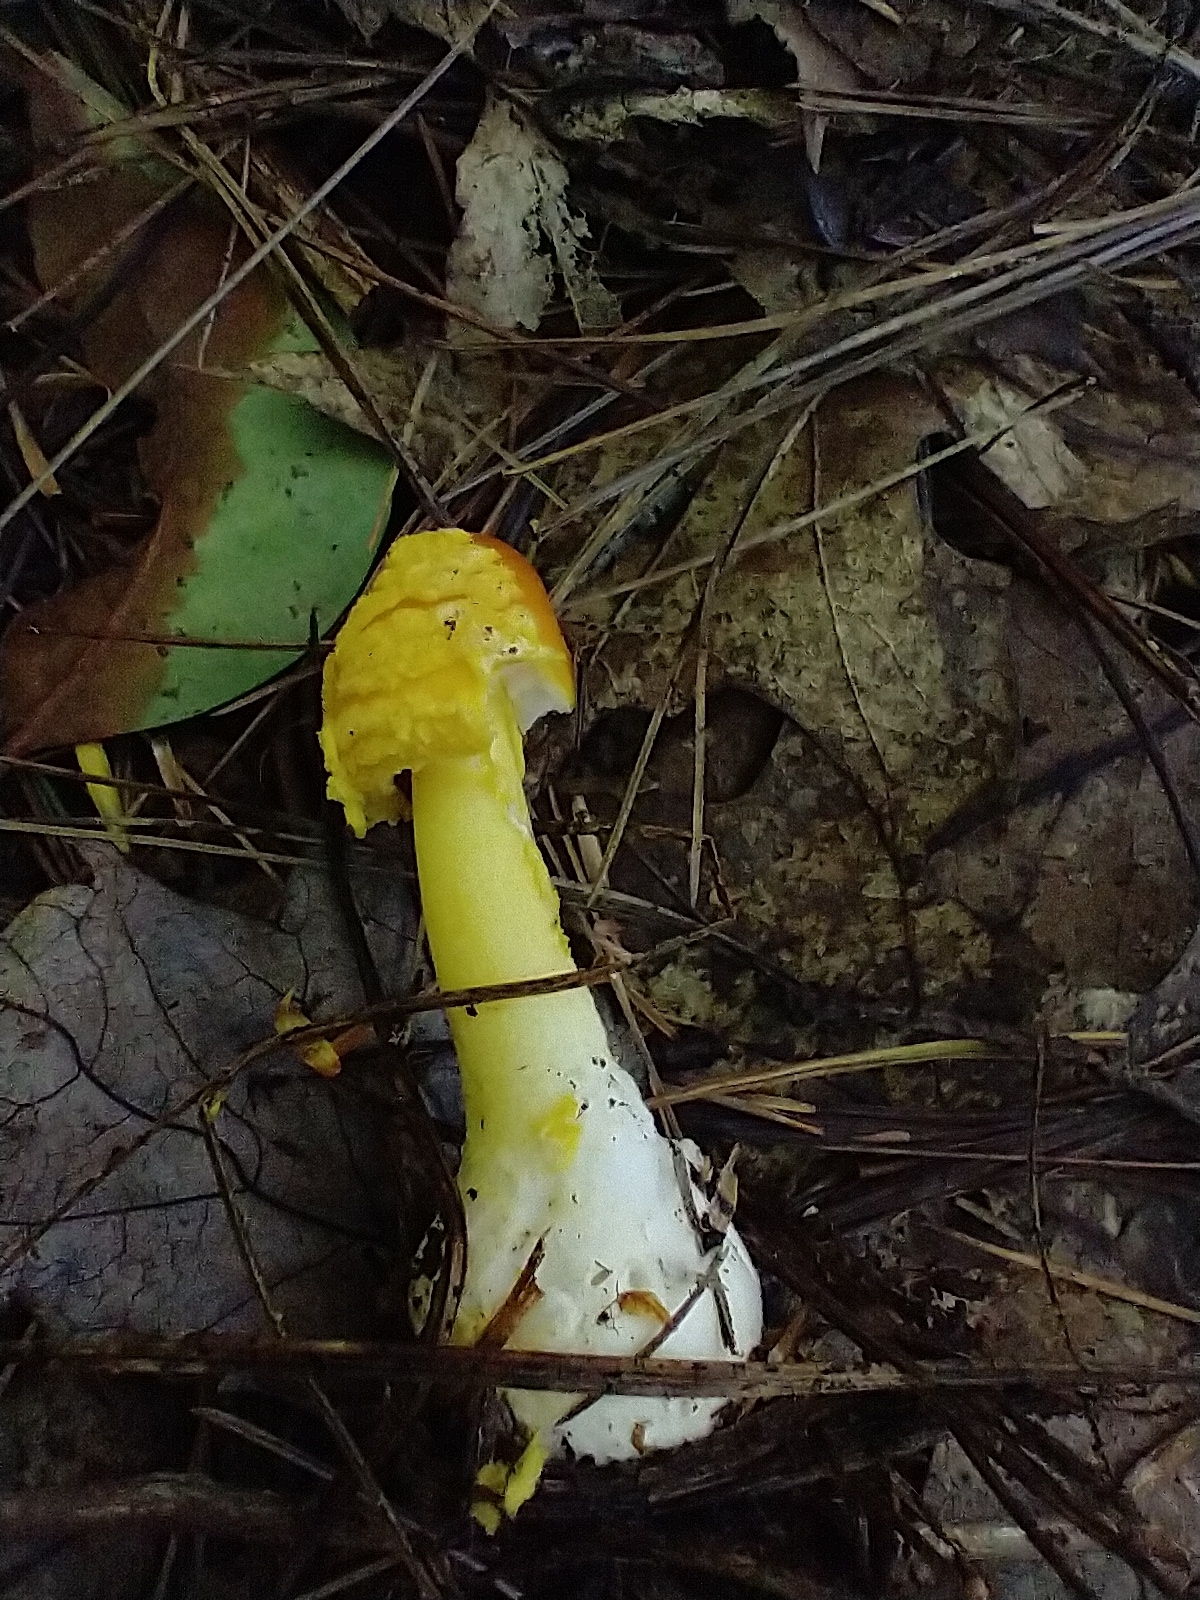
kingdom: Fungi
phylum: Basidiomycota
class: Agaricomycetes
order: Agaricales
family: Amanitaceae
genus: Amanita
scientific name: Amanita flavoconia
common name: Yellow patches
